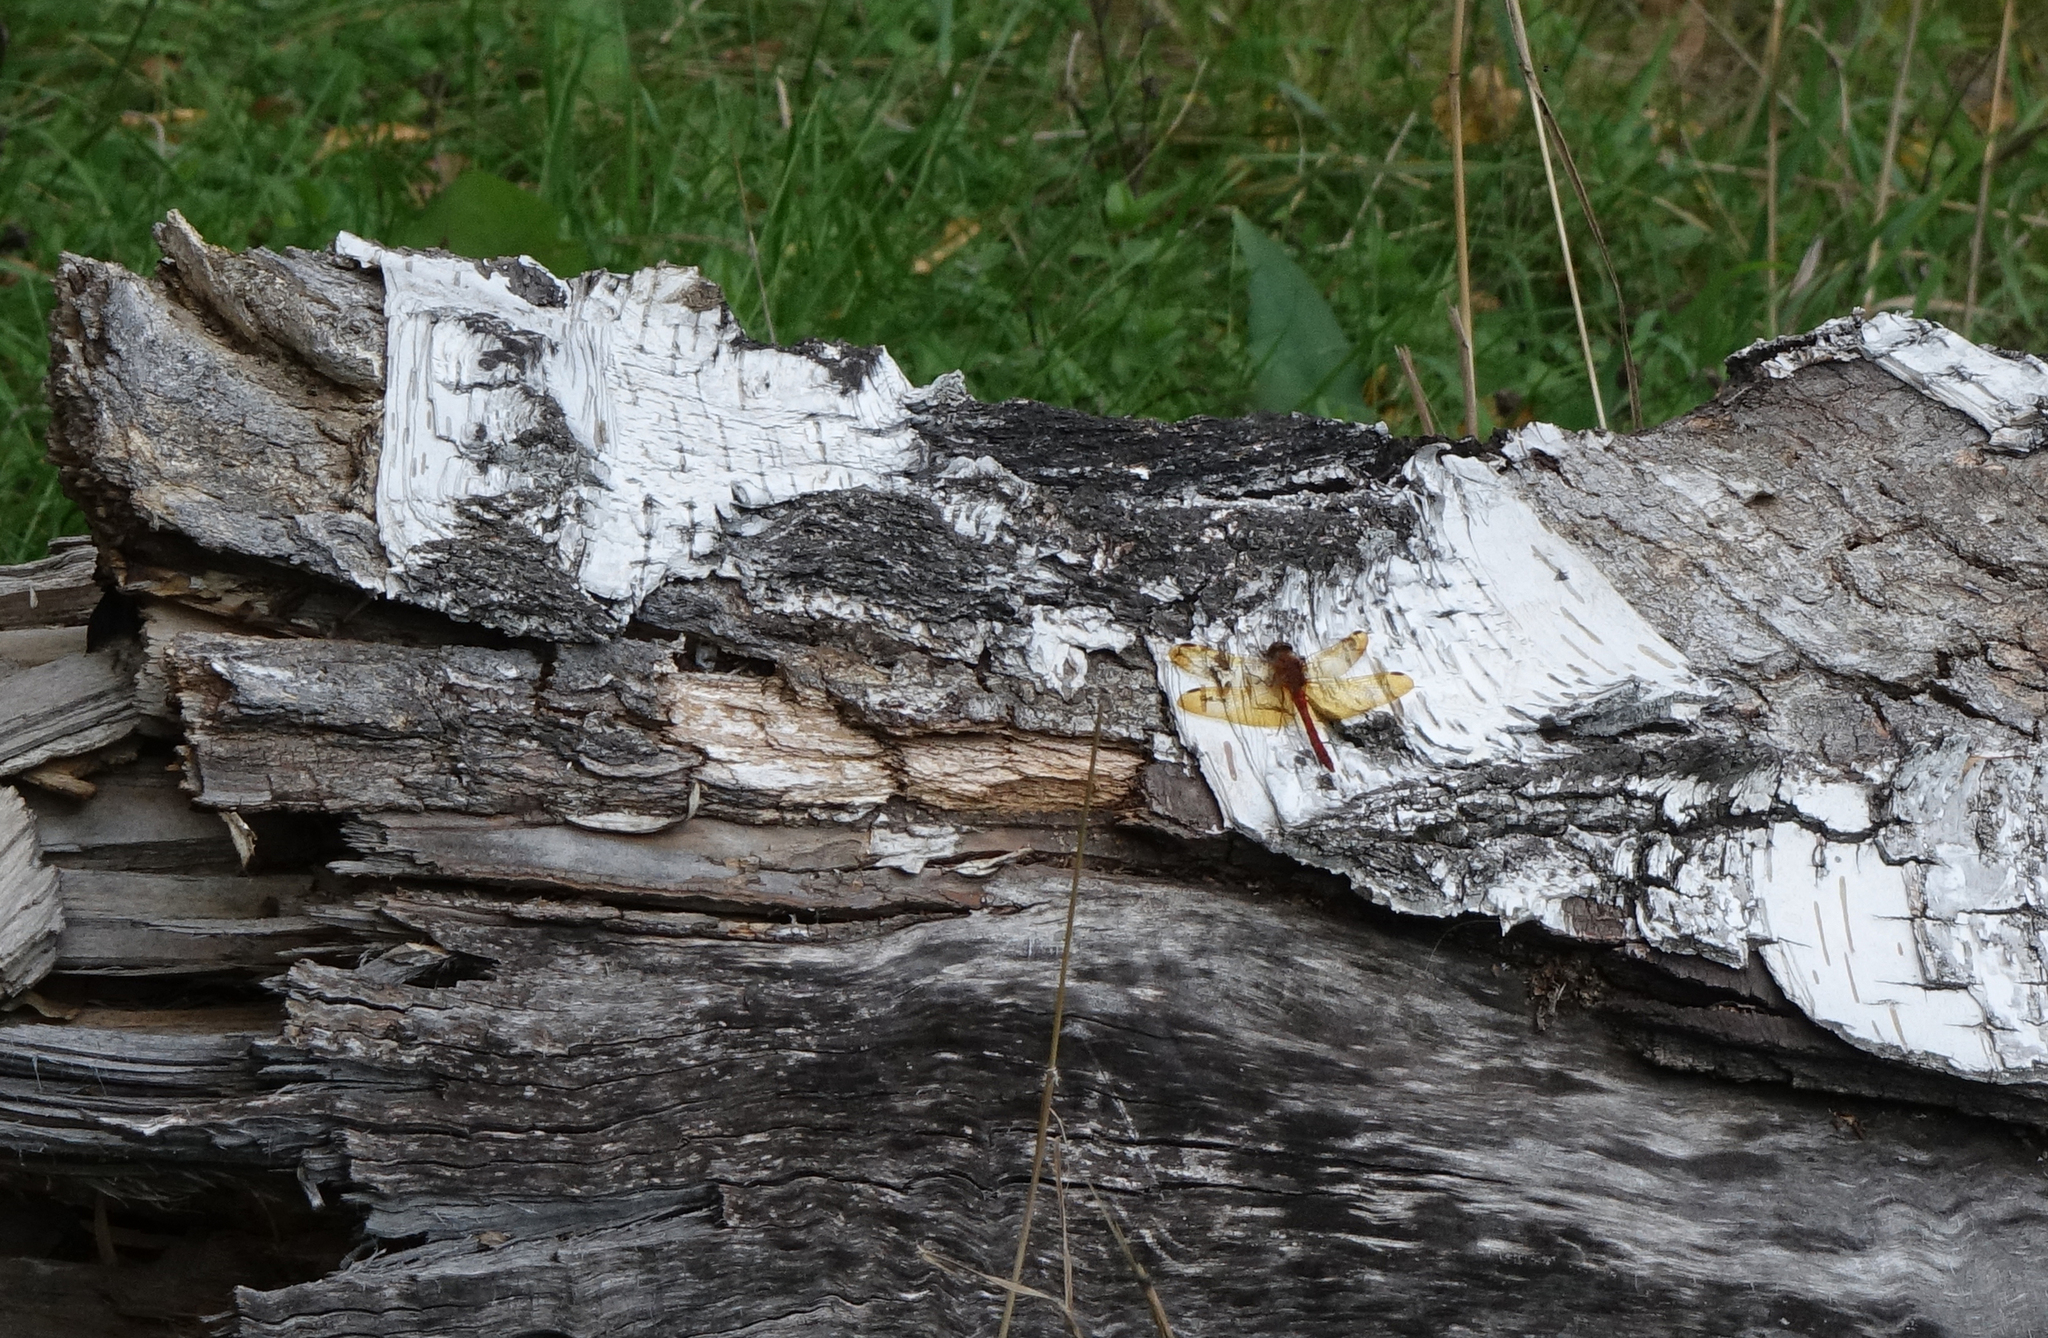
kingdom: Animalia
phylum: Arthropoda
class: Insecta
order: Odonata
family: Libellulidae
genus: Sympetrum
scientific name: Sympetrum croceolum
